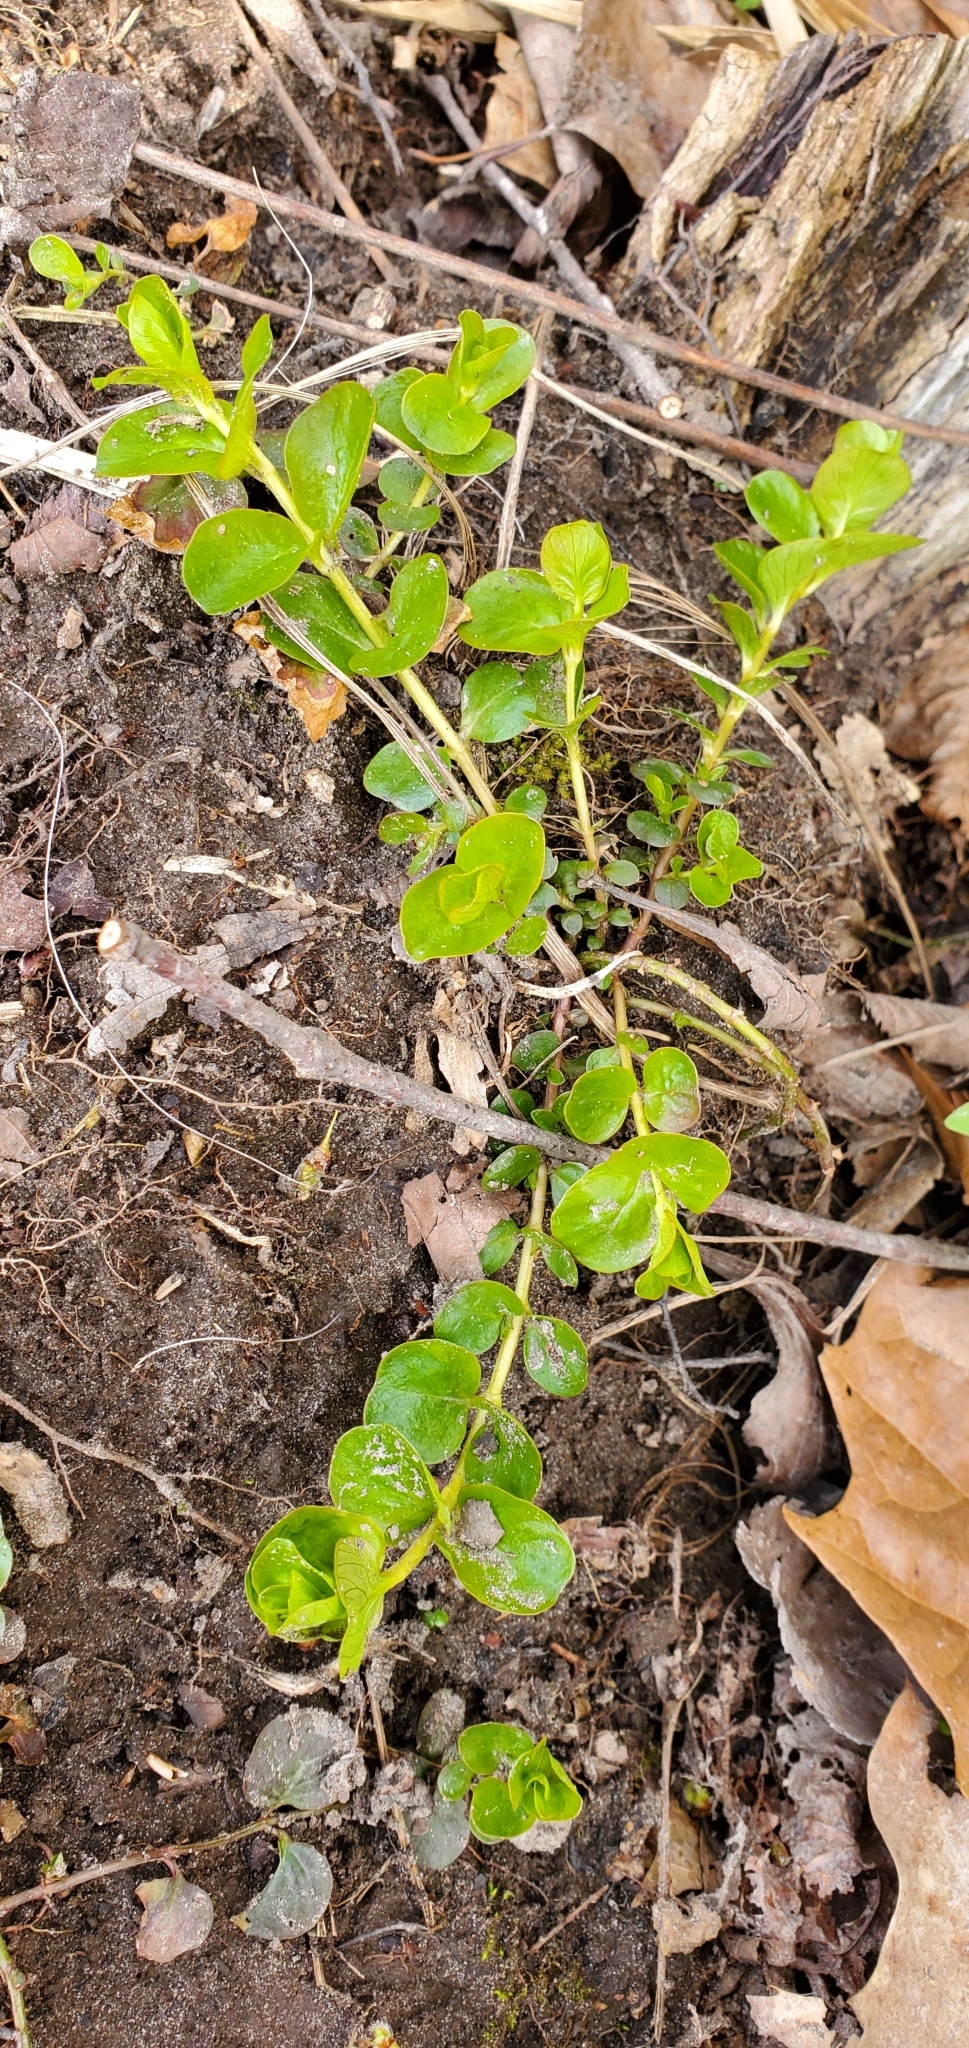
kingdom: Plantae
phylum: Tracheophyta
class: Magnoliopsida
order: Ericales
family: Primulaceae
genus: Lysimachia
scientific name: Lysimachia nummularia
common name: Moneywort
